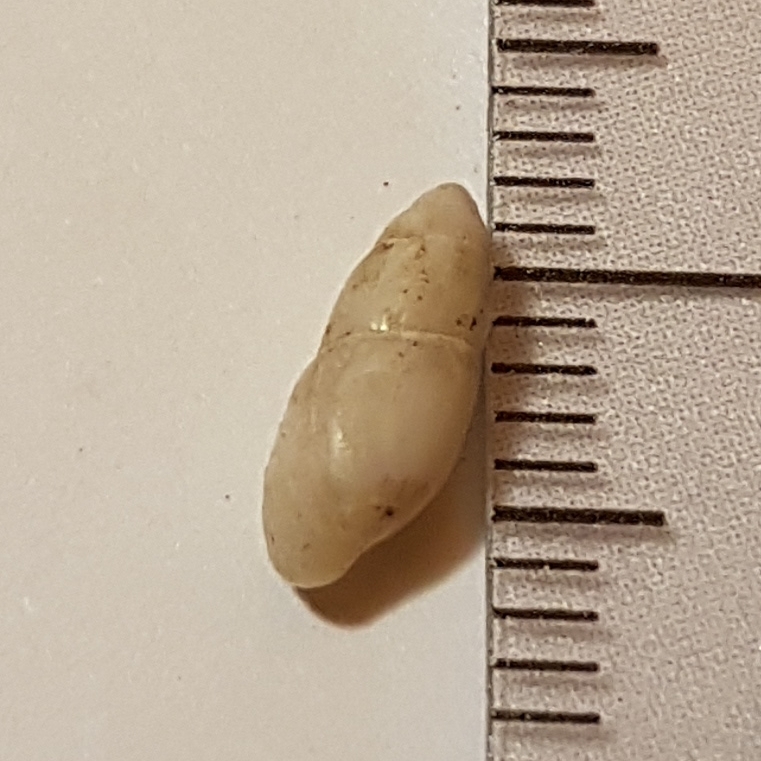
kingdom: Animalia
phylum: Mollusca
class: Gastropoda
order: Stylommatophora
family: Ferussaciidae
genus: Ferussacia
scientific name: Ferussacia folliculum
